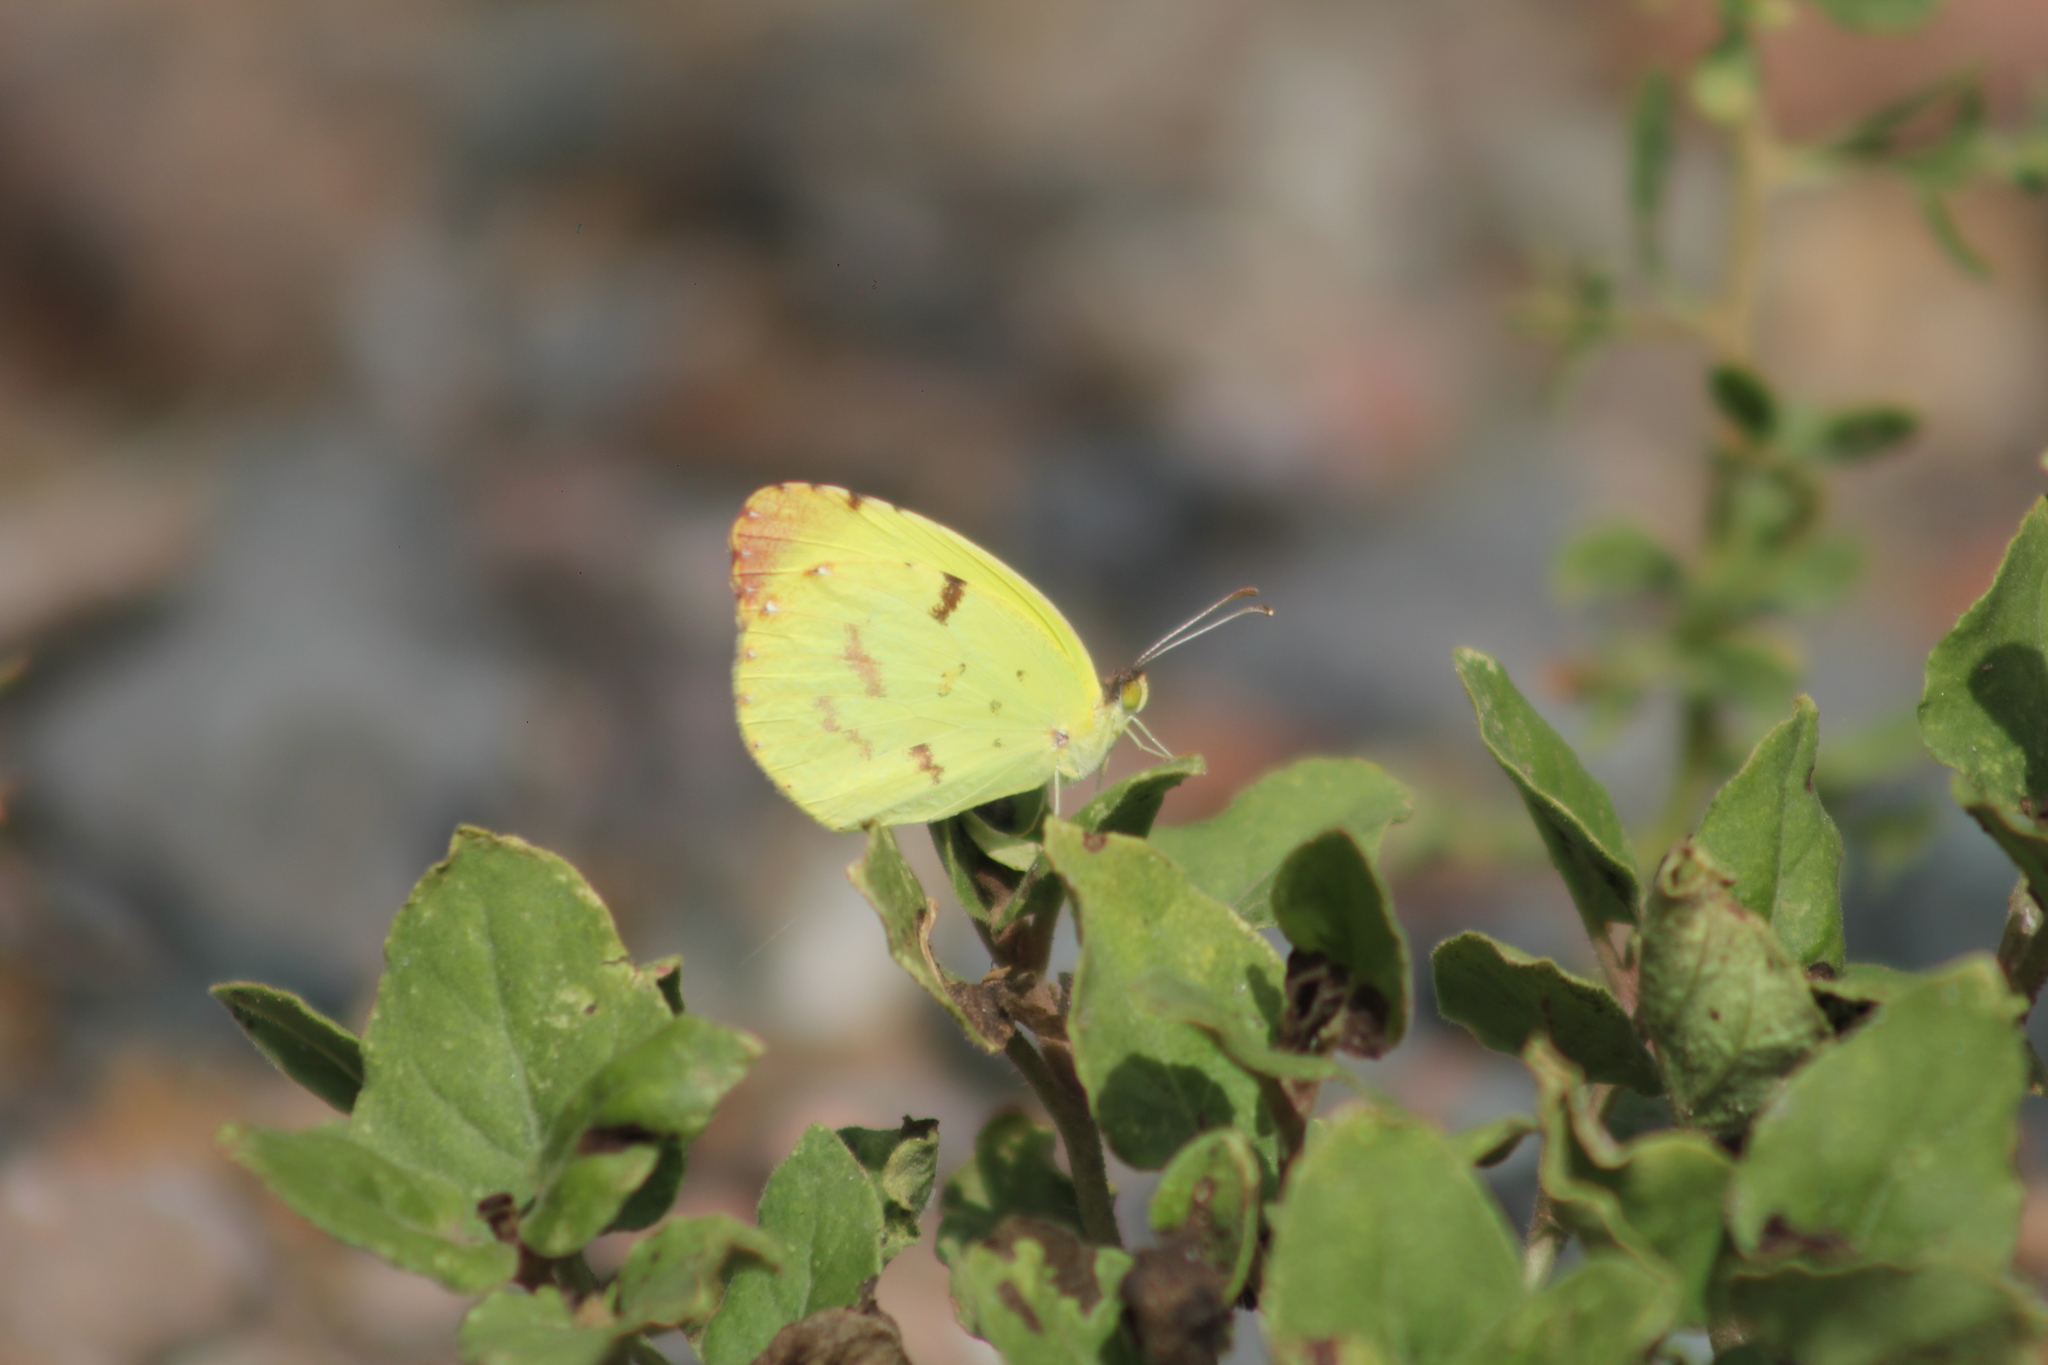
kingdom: Animalia
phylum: Arthropoda
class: Insecta
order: Lepidoptera
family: Pieridae
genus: Teriocolias
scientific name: Teriocolias
